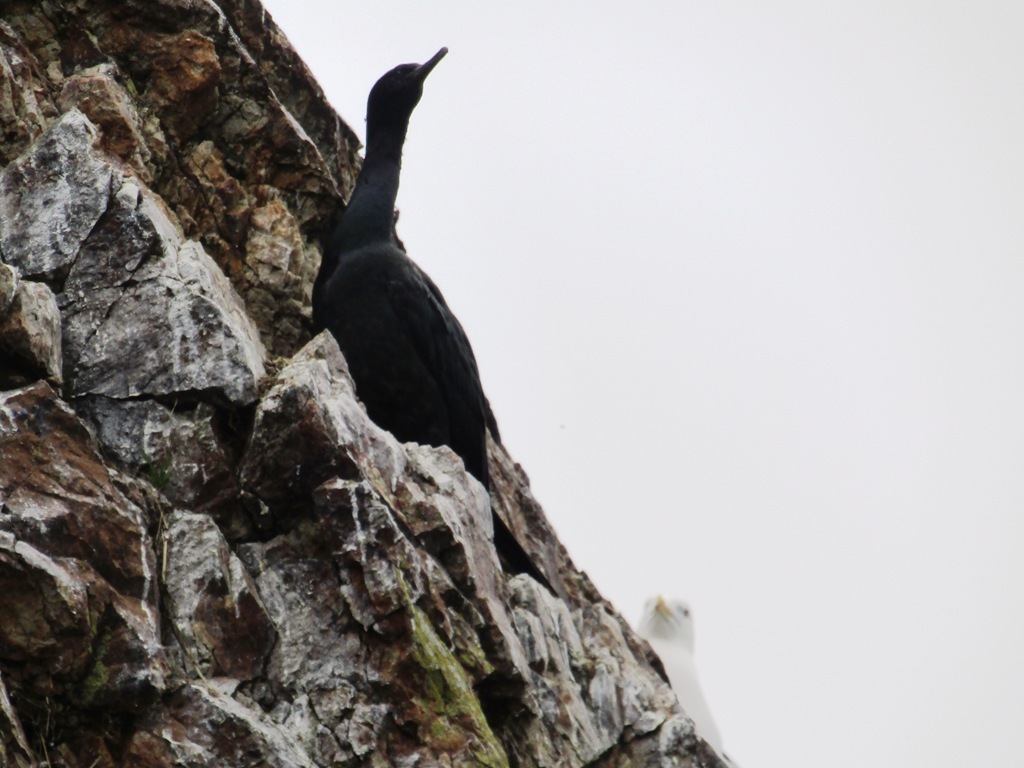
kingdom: Animalia
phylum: Chordata
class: Aves
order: Suliformes
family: Phalacrocoracidae
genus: Phalacrocorax
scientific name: Phalacrocorax pelagicus
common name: Pelagic cormorant
